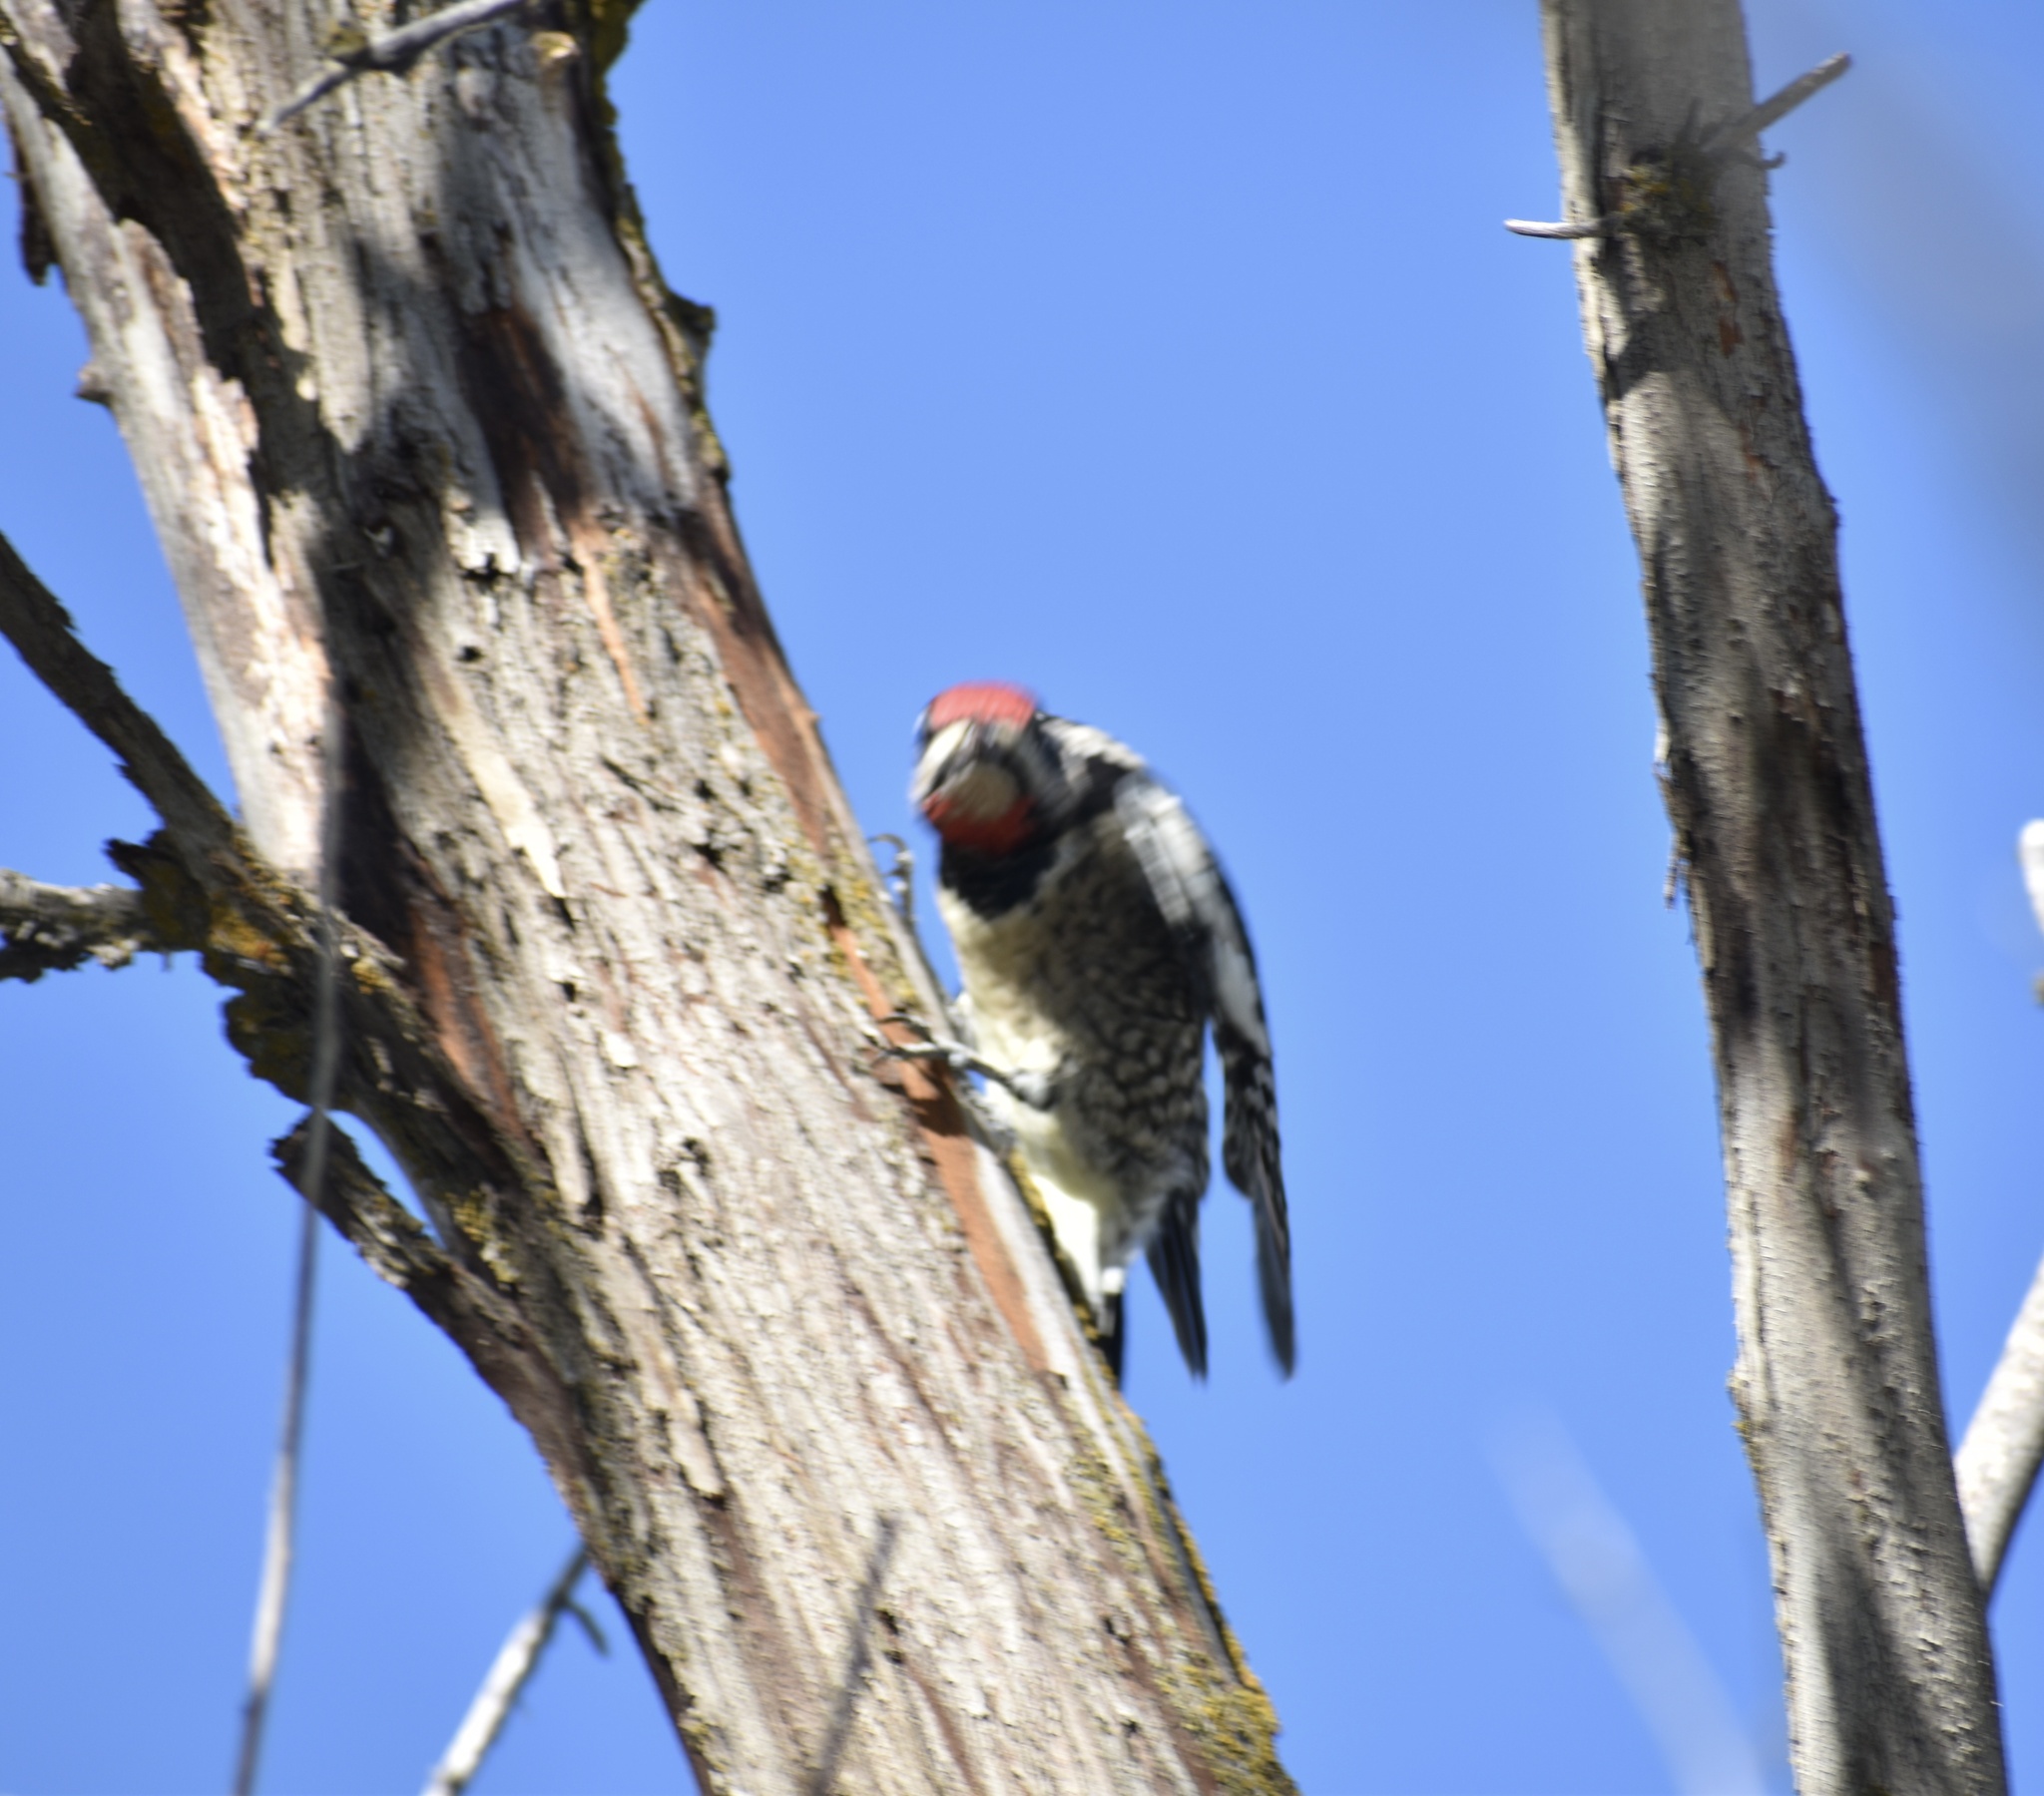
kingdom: Animalia
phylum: Chordata
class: Aves
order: Piciformes
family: Picidae
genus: Sphyrapicus
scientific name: Sphyrapicus nuchalis
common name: Red-naped sapsucker
